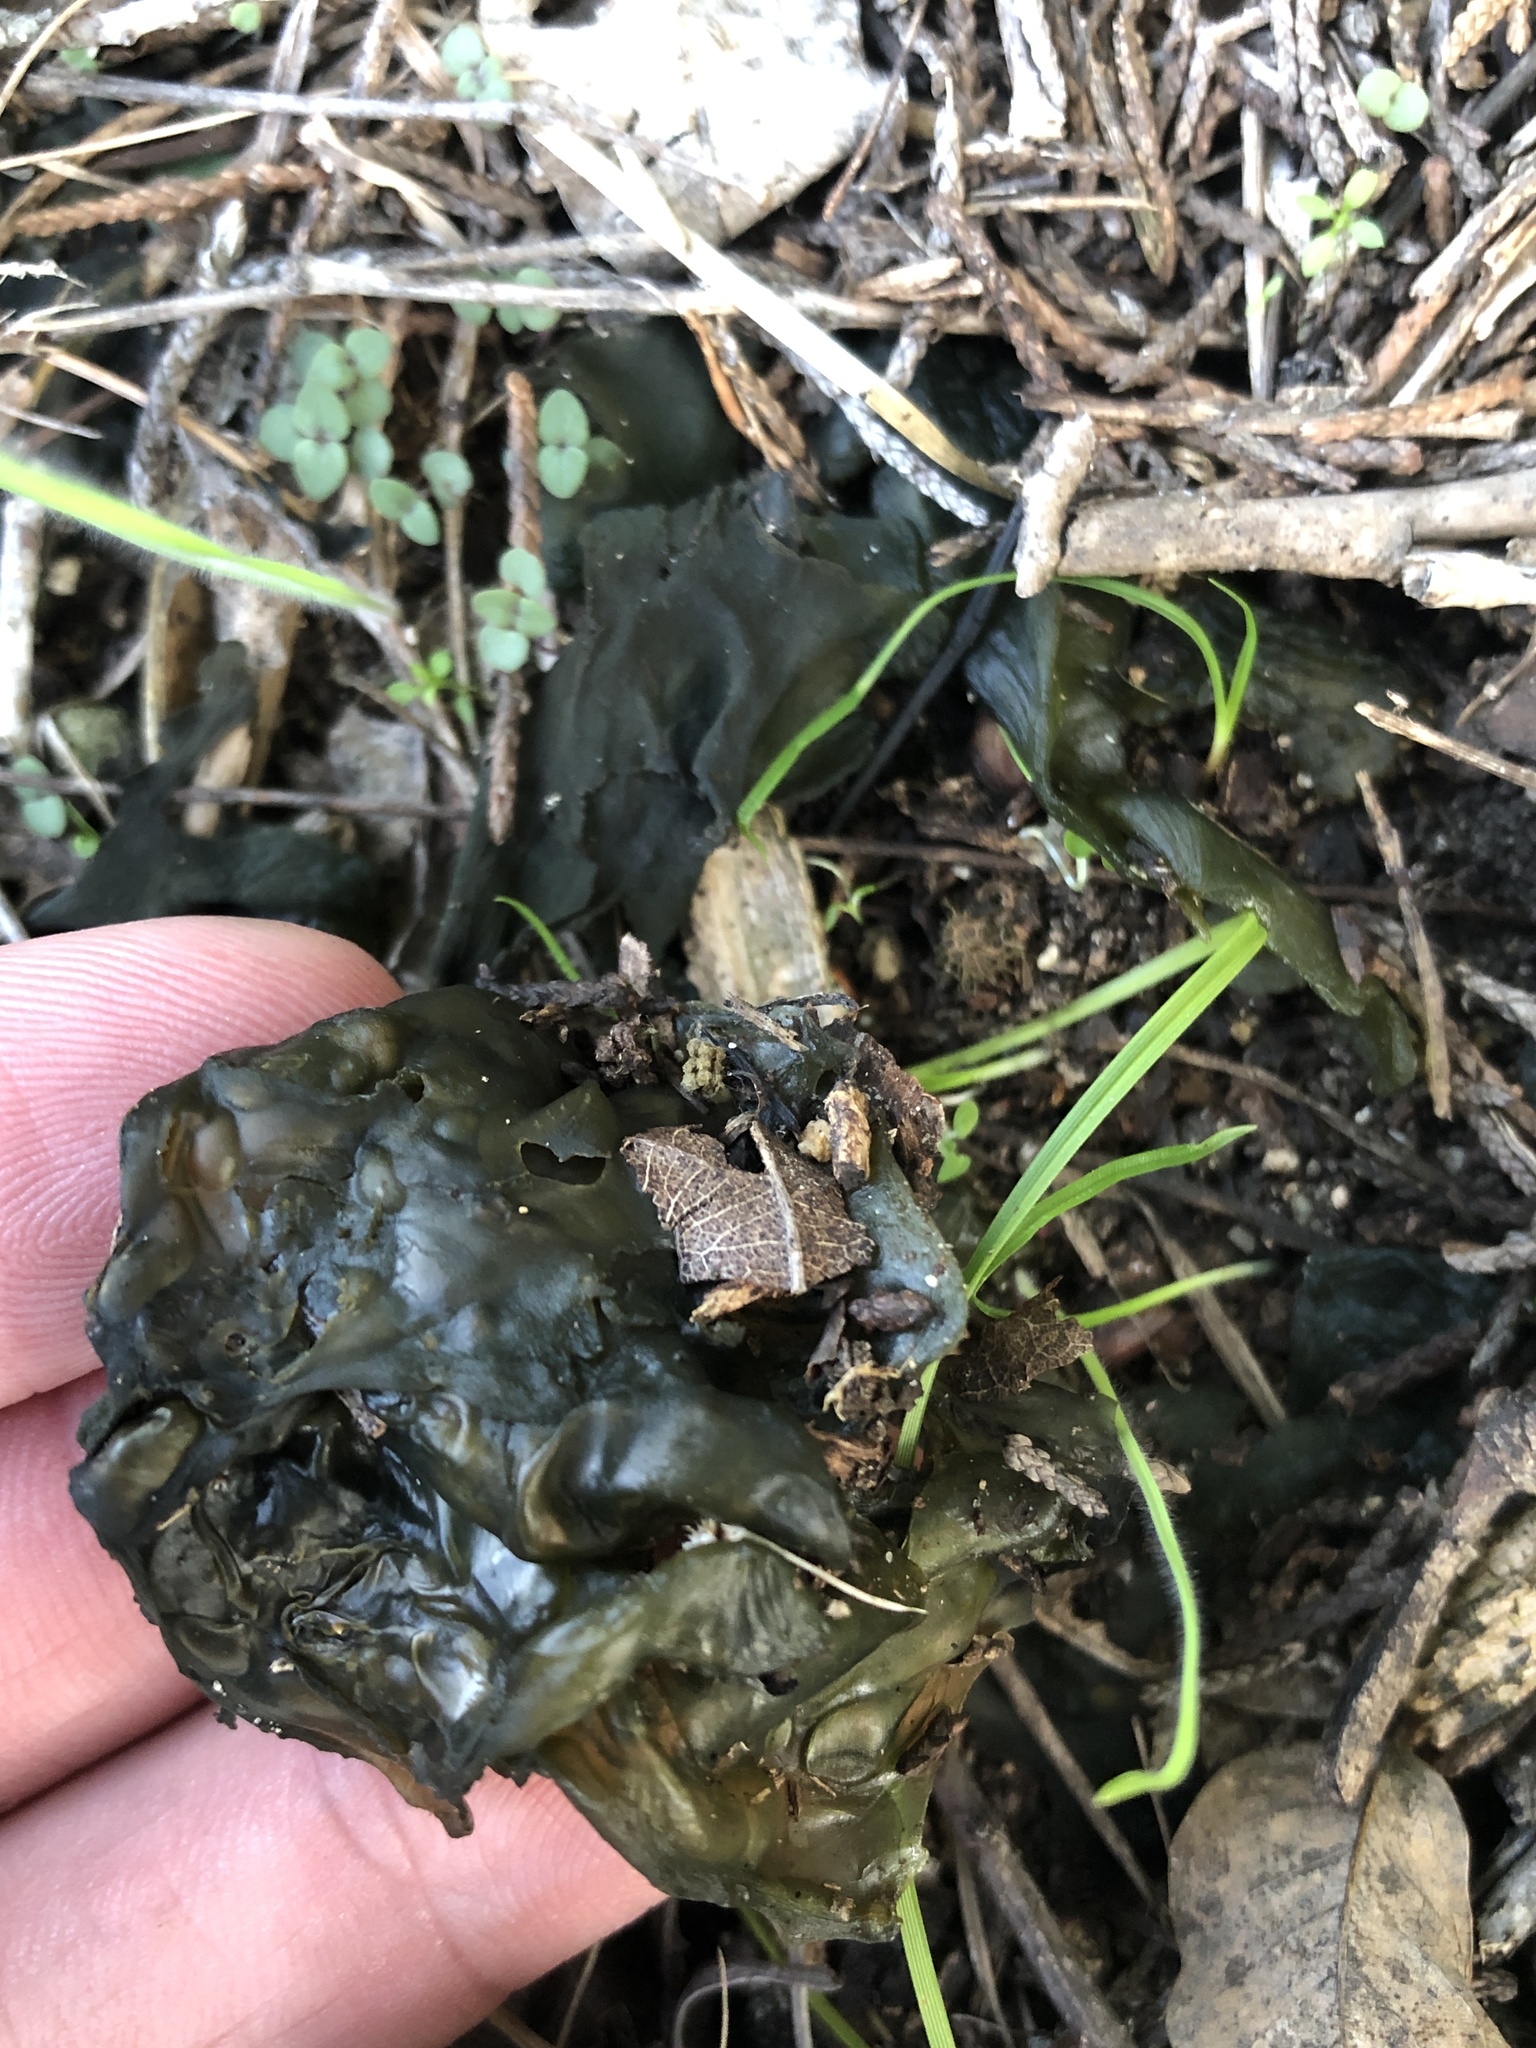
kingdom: Bacteria
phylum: Cyanobacteria
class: Cyanobacteriia
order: Cyanobacteriales
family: Nostocaceae
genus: Nostoc
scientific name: Nostoc commune
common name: Star jelly
